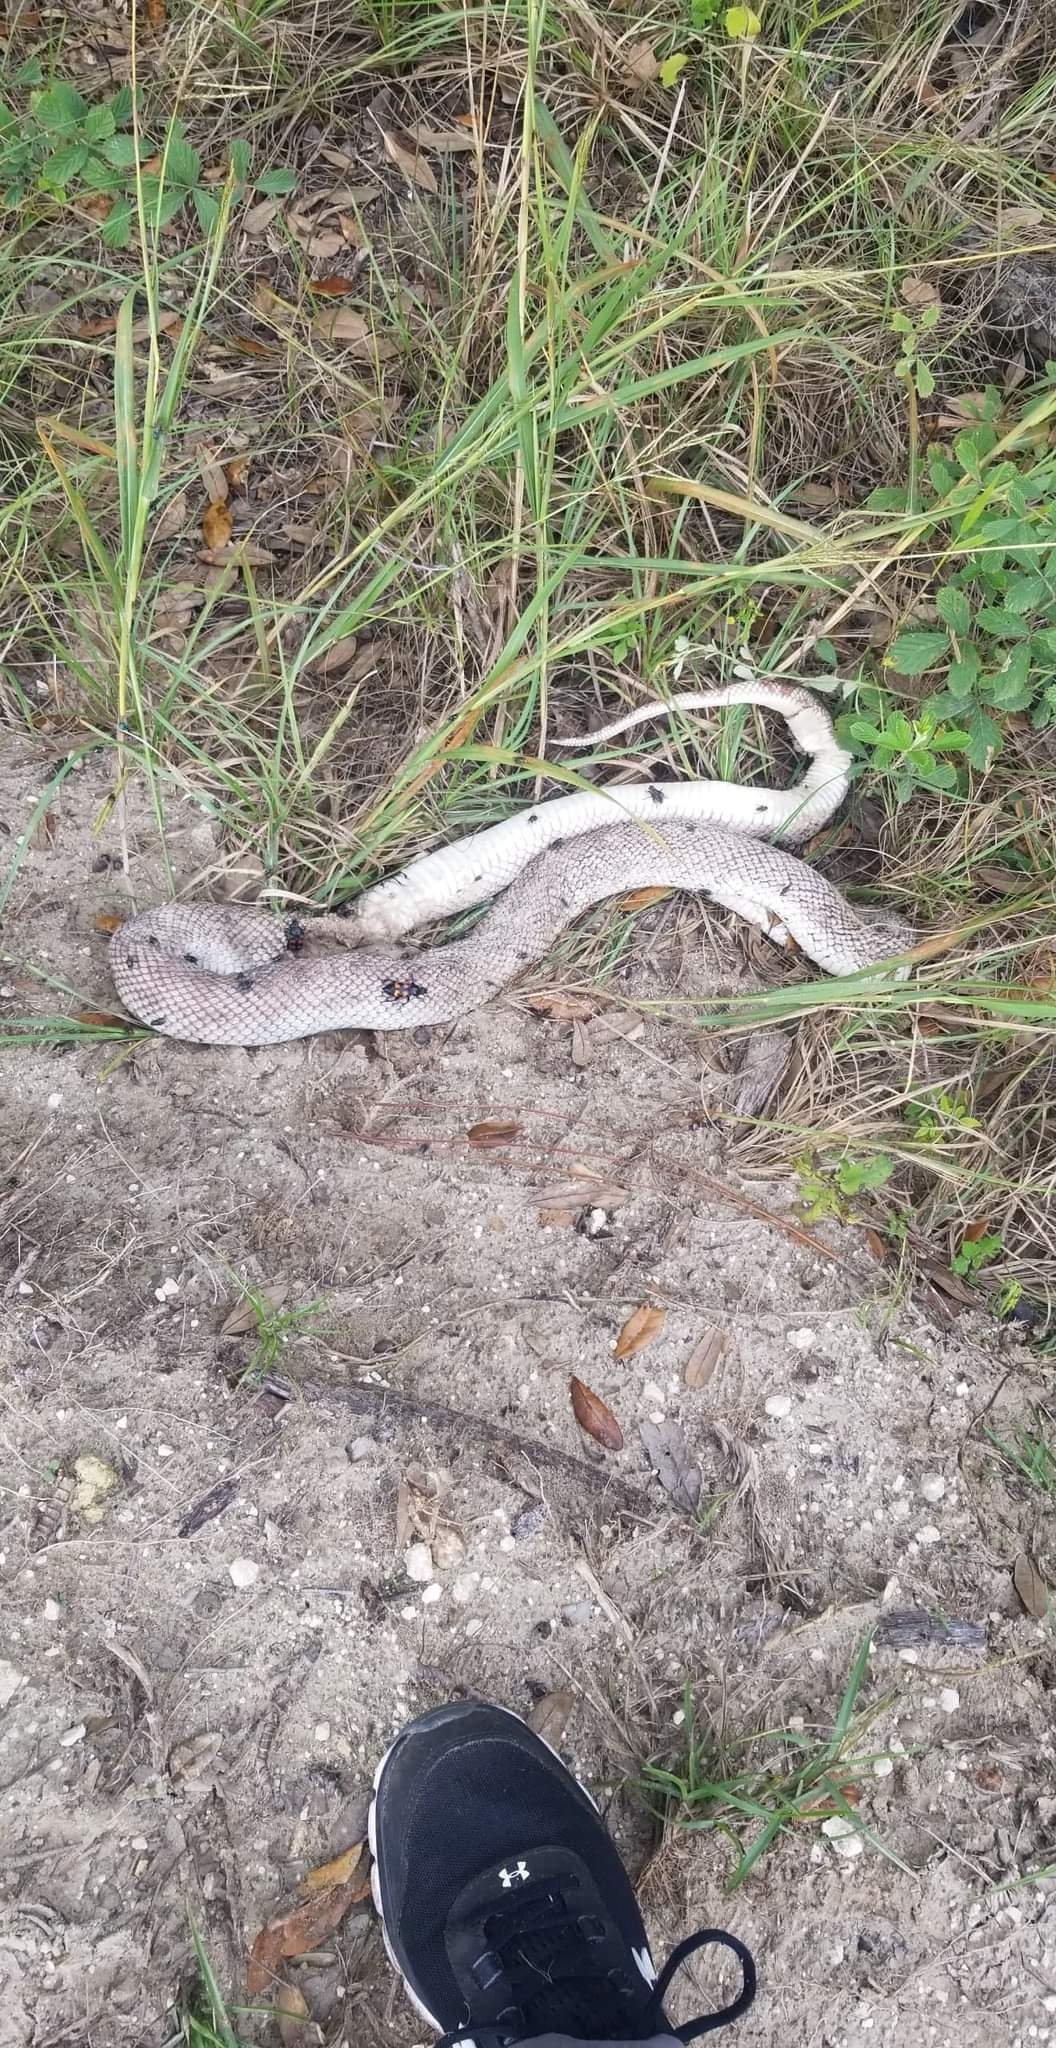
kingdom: Animalia
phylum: Chordata
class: Squamata
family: Colubridae
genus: Pituophis
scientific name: Pituophis melanoleucus
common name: Pine snake
